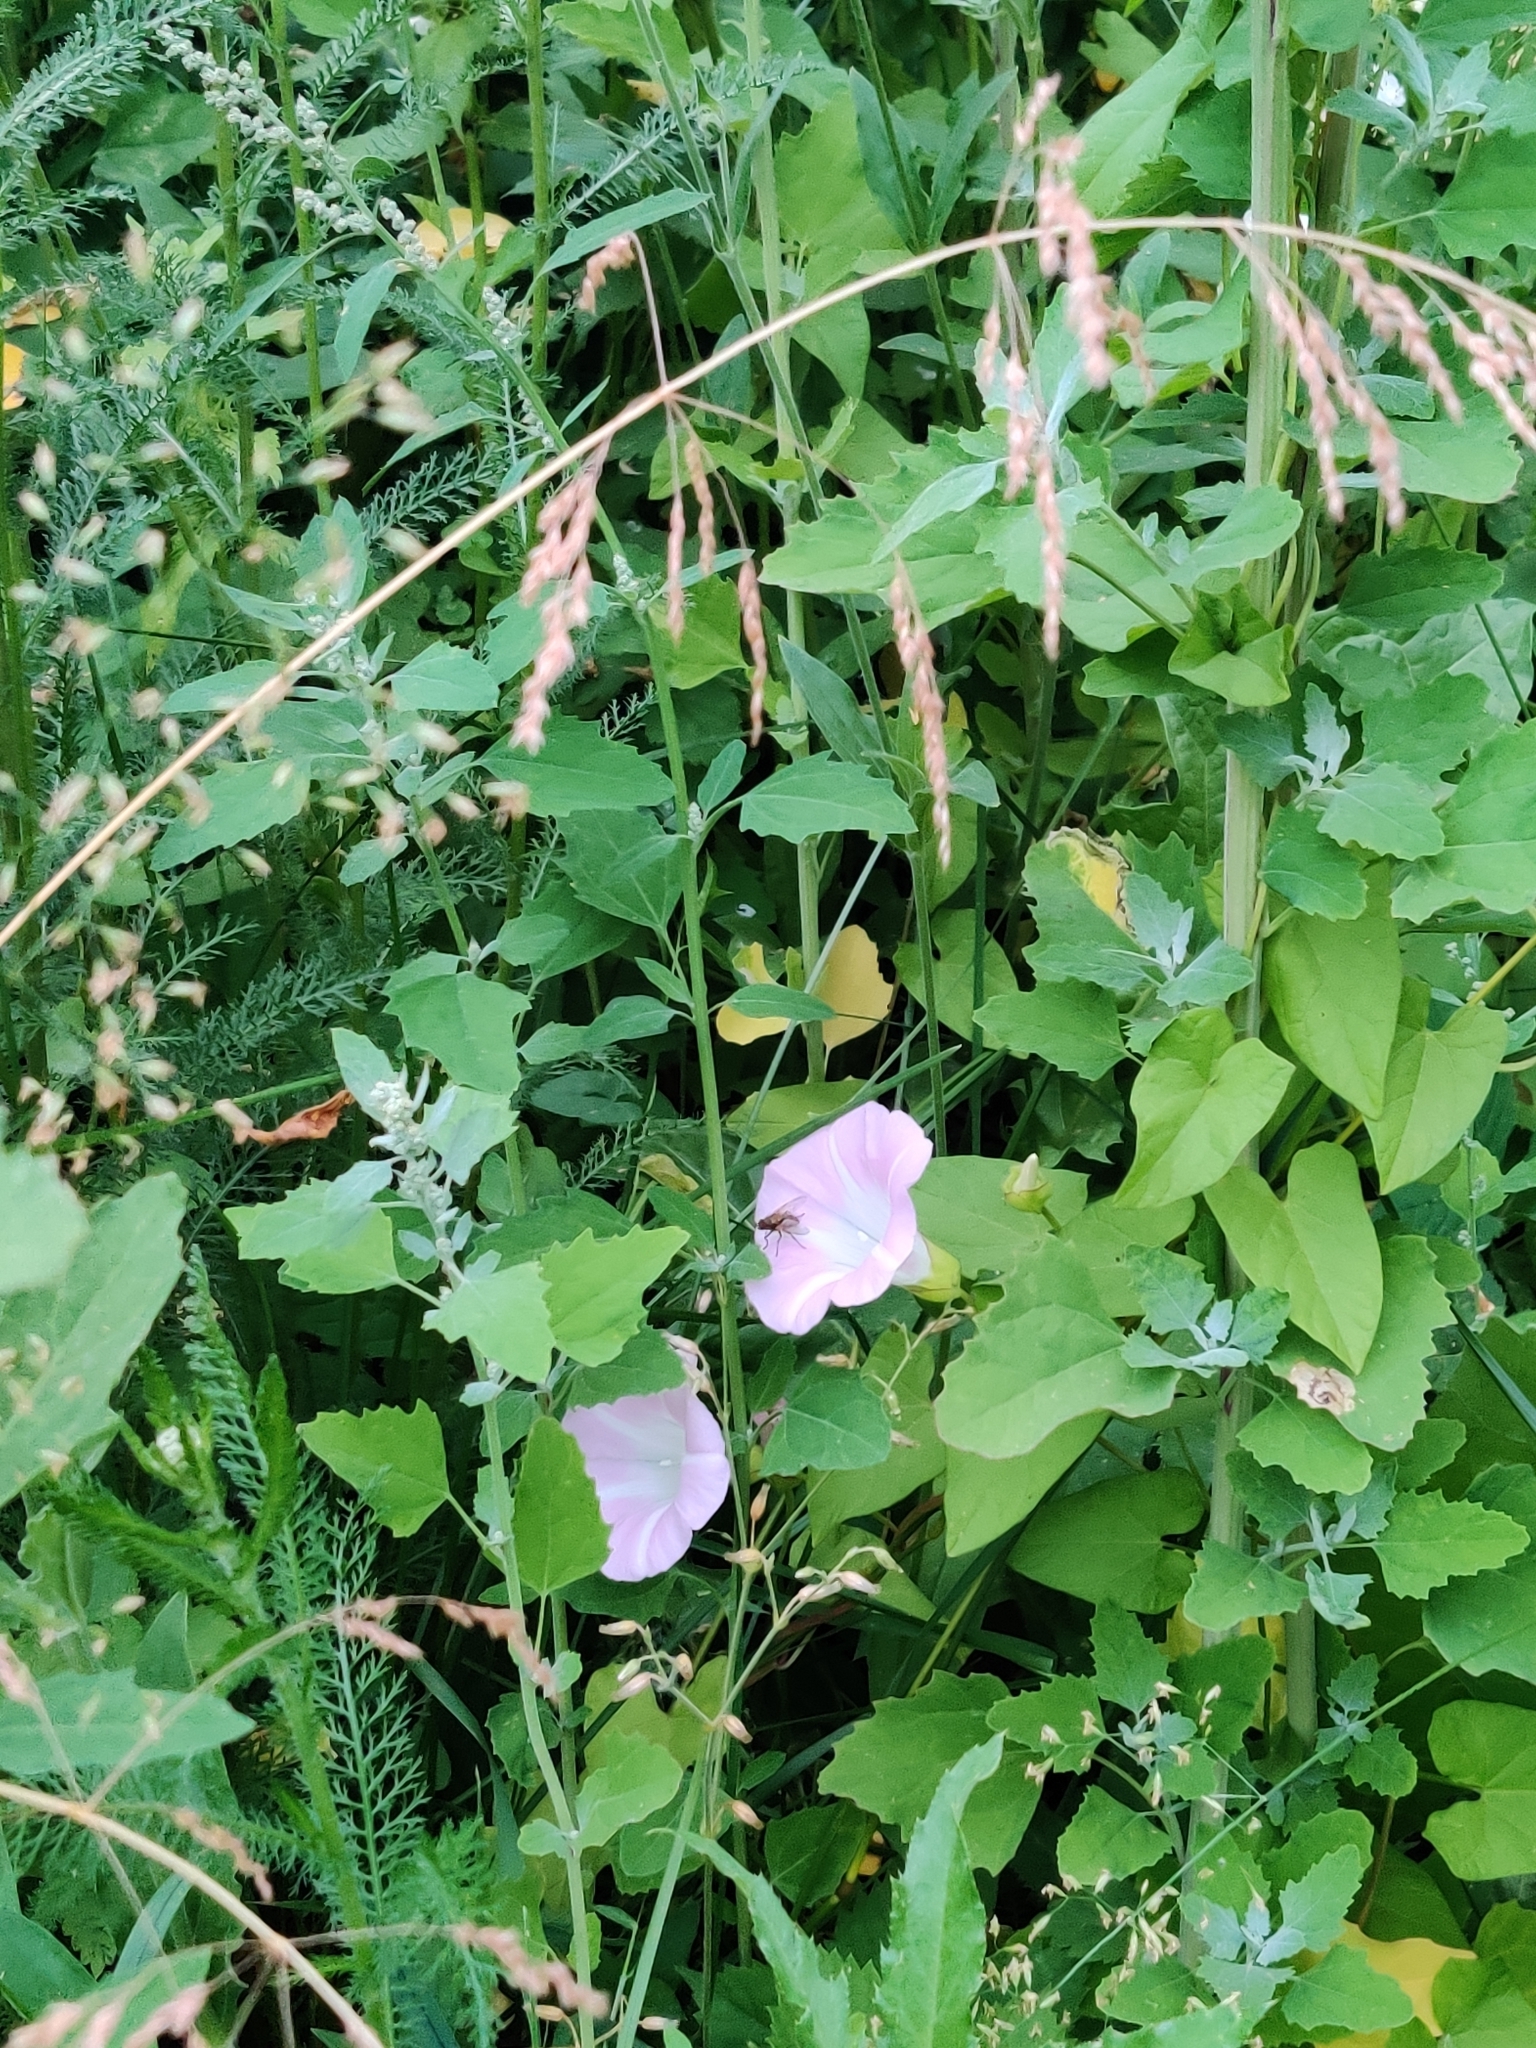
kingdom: Plantae
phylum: Tracheophyta
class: Magnoliopsida
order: Solanales
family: Convolvulaceae
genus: Calystegia
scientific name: Calystegia sepium
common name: Hedge bindweed
